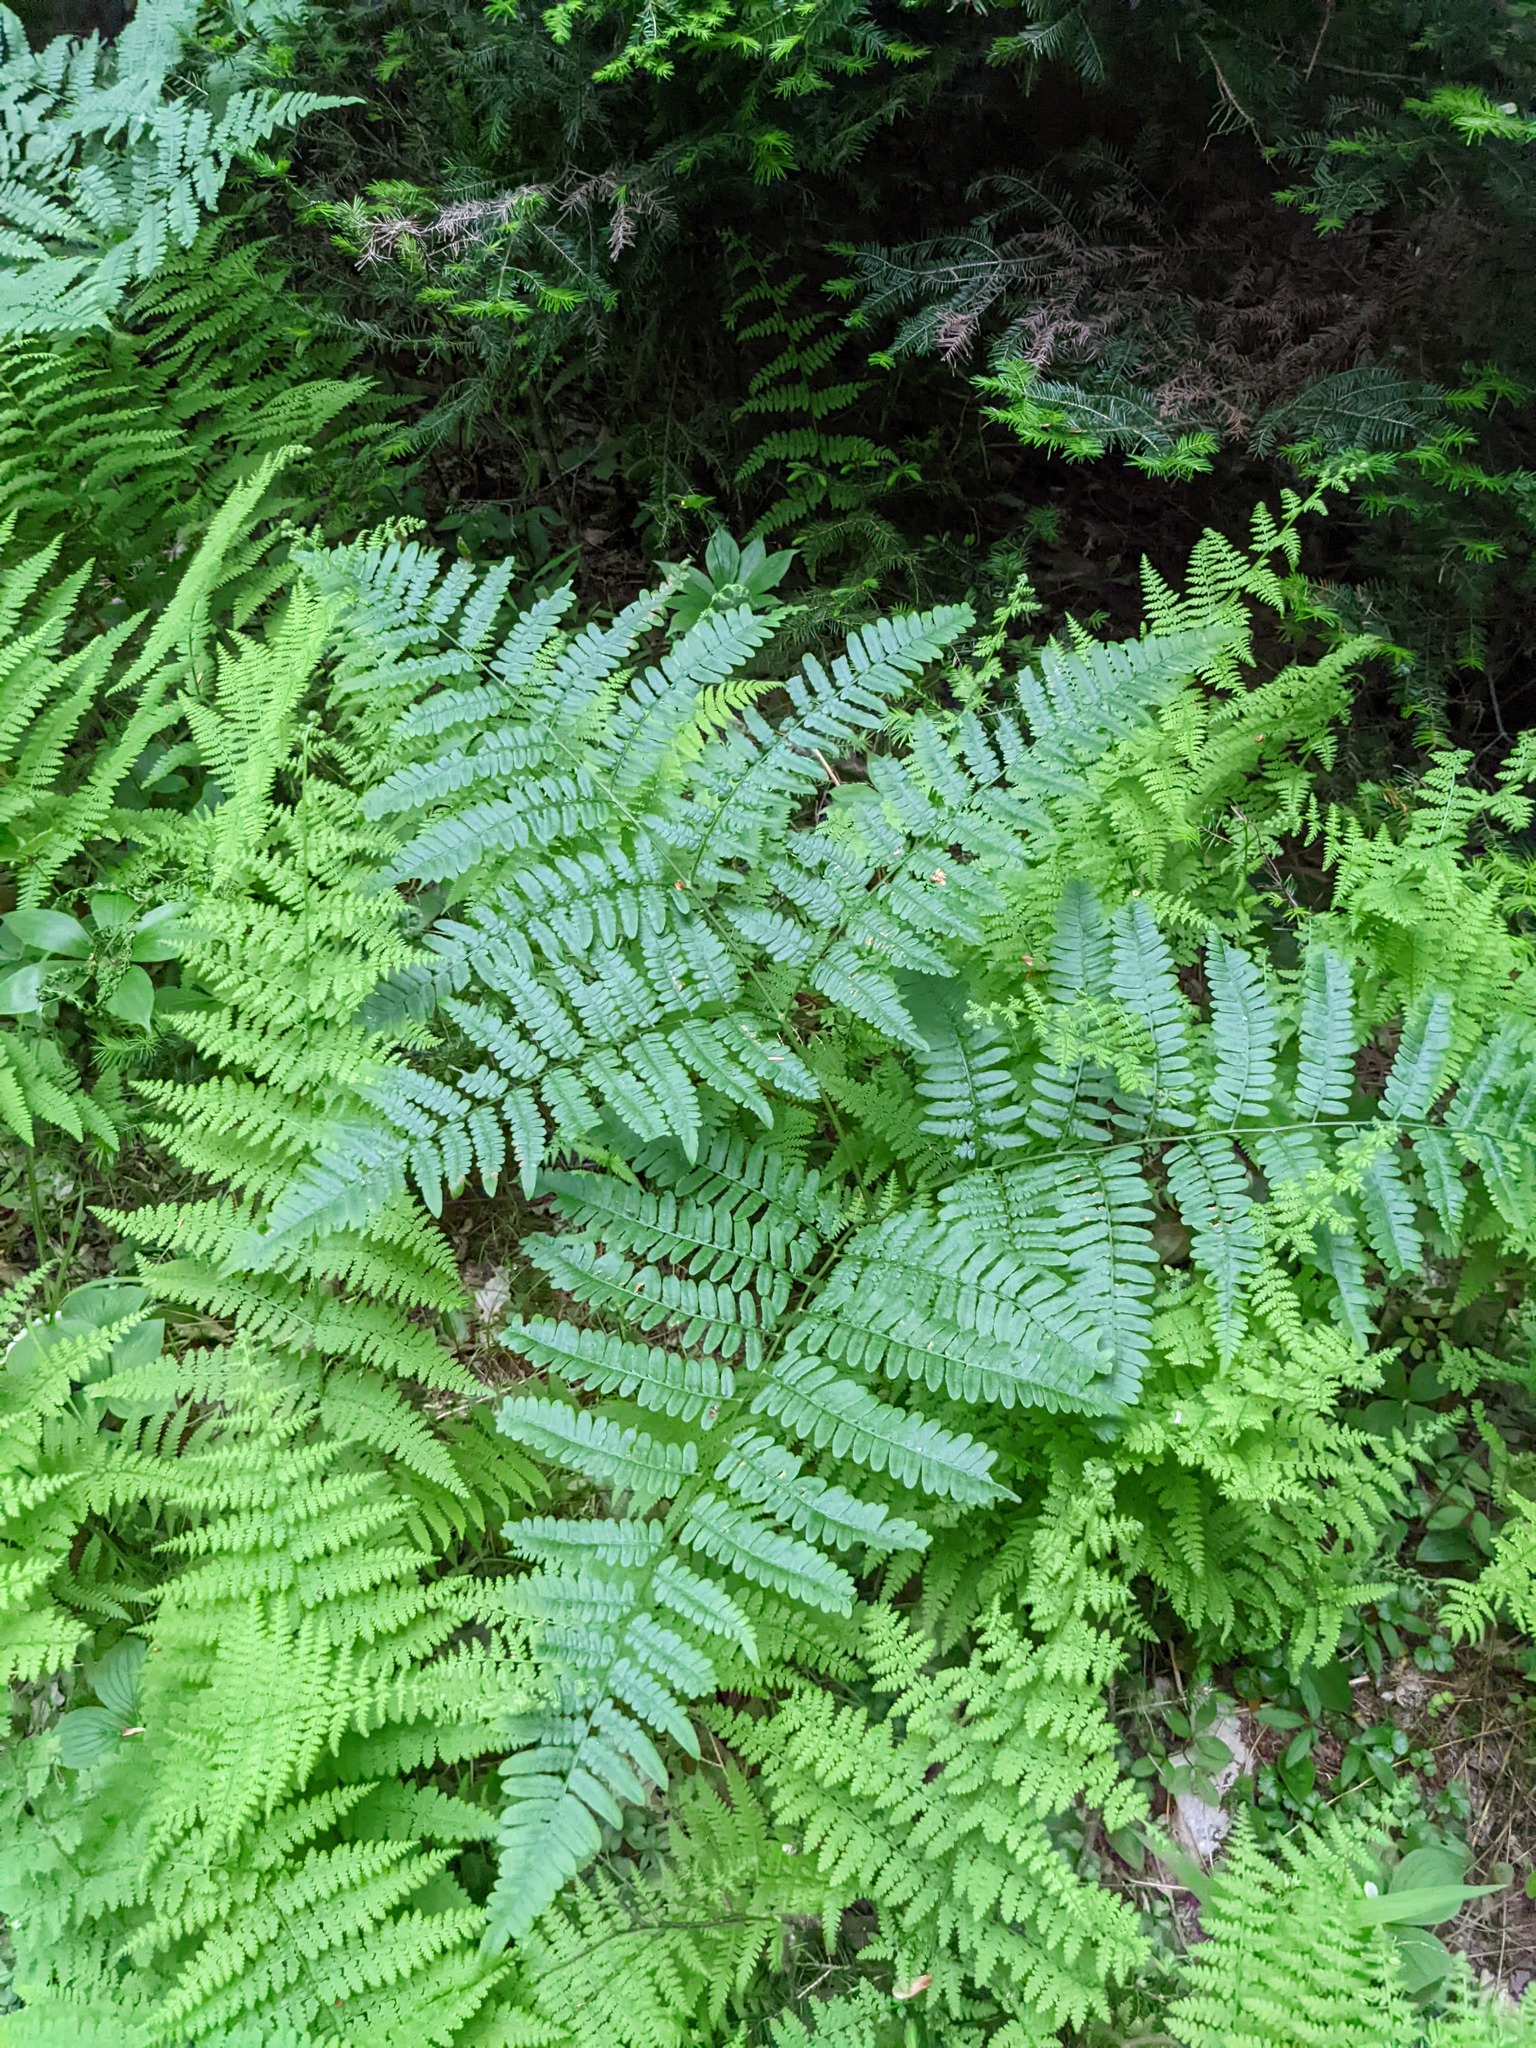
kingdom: Plantae
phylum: Tracheophyta
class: Polypodiopsida
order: Polypodiales
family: Dennstaedtiaceae
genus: Pteridium
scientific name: Pteridium aquilinum
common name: Bracken
